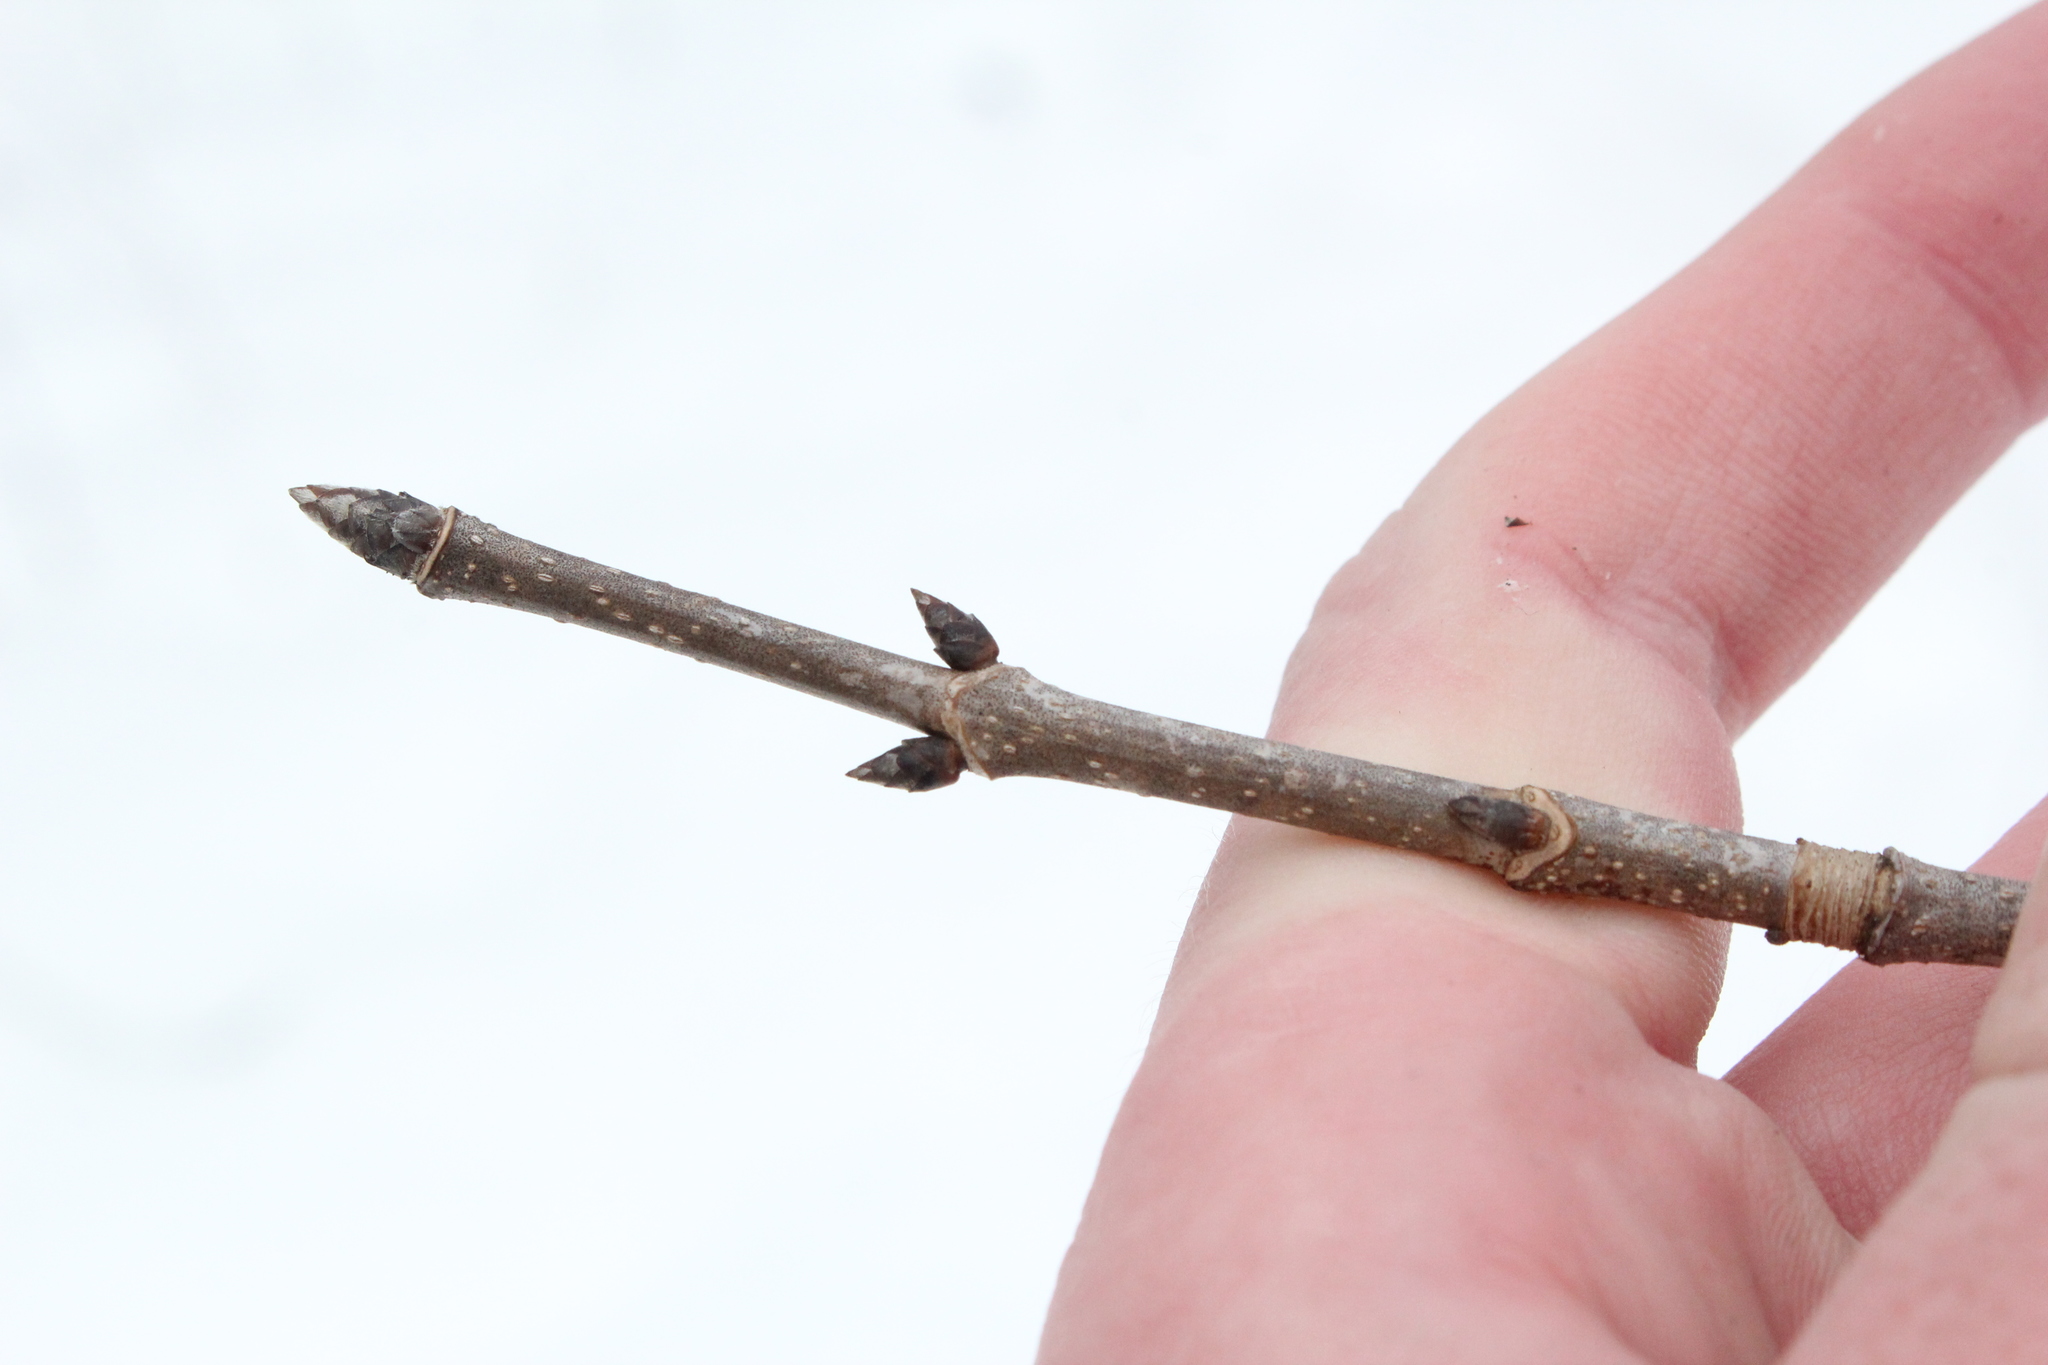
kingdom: Plantae
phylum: Tracheophyta
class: Magnoliopsida
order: Sapindales
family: Sapindaceae
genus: Acer
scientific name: Acer nigrum
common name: Black maple
